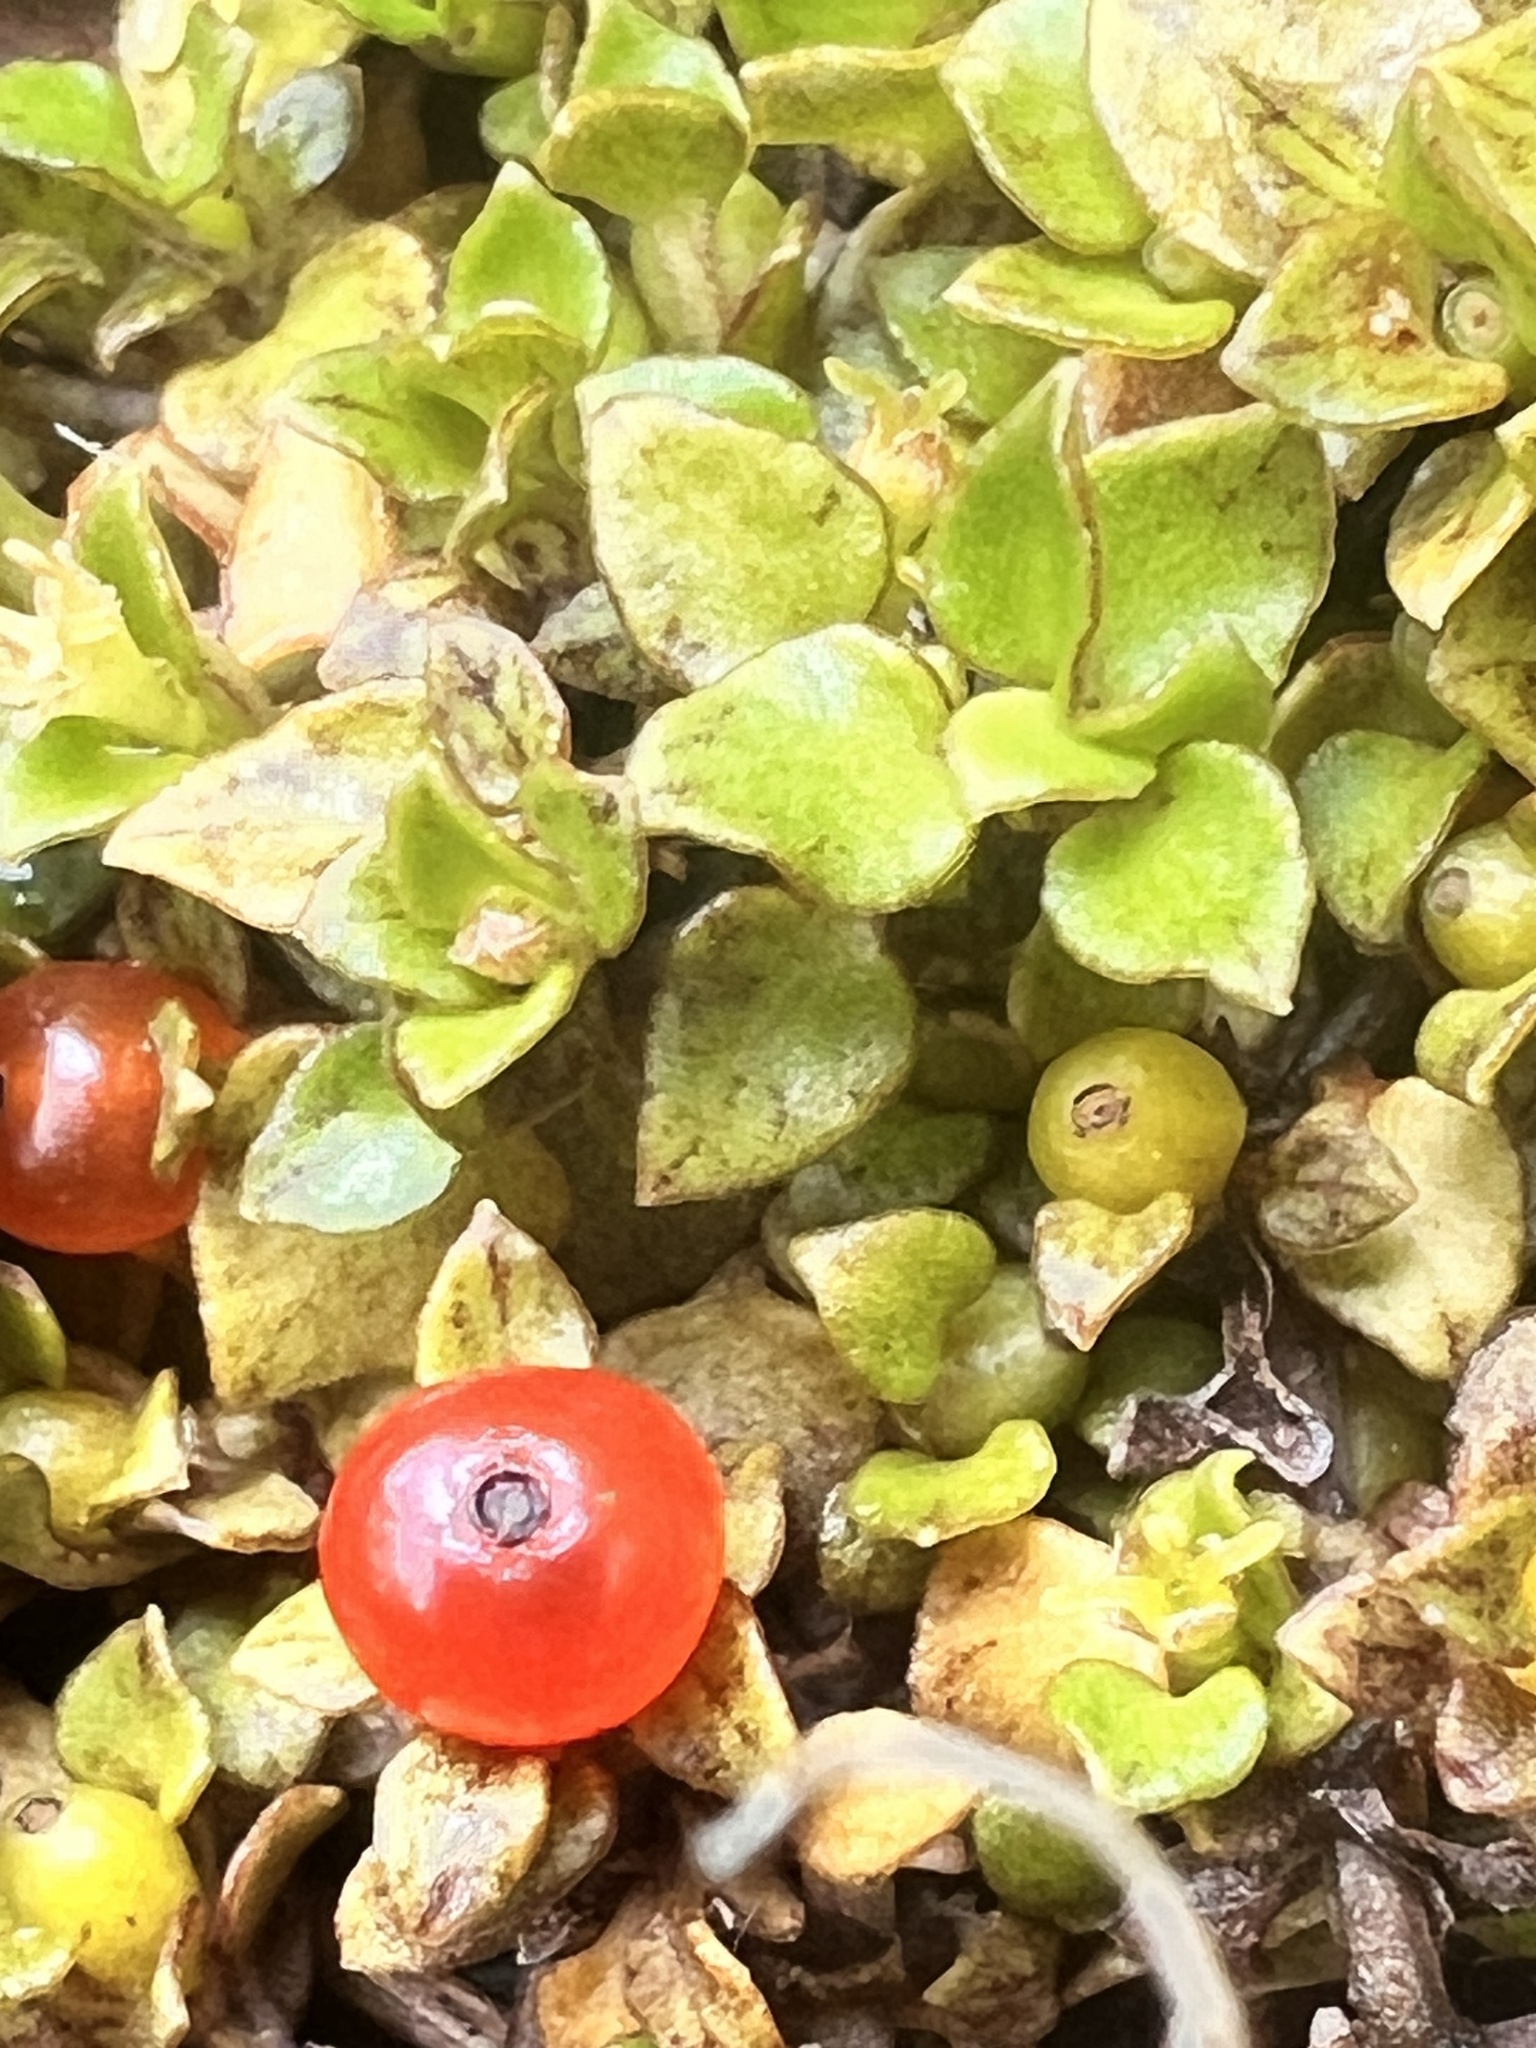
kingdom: Plantae
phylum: Tracheophyta
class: Magnoliopsida
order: Gentianales
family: Rubiaceae
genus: Nertera
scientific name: Nertera granadensis
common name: Beadplant
